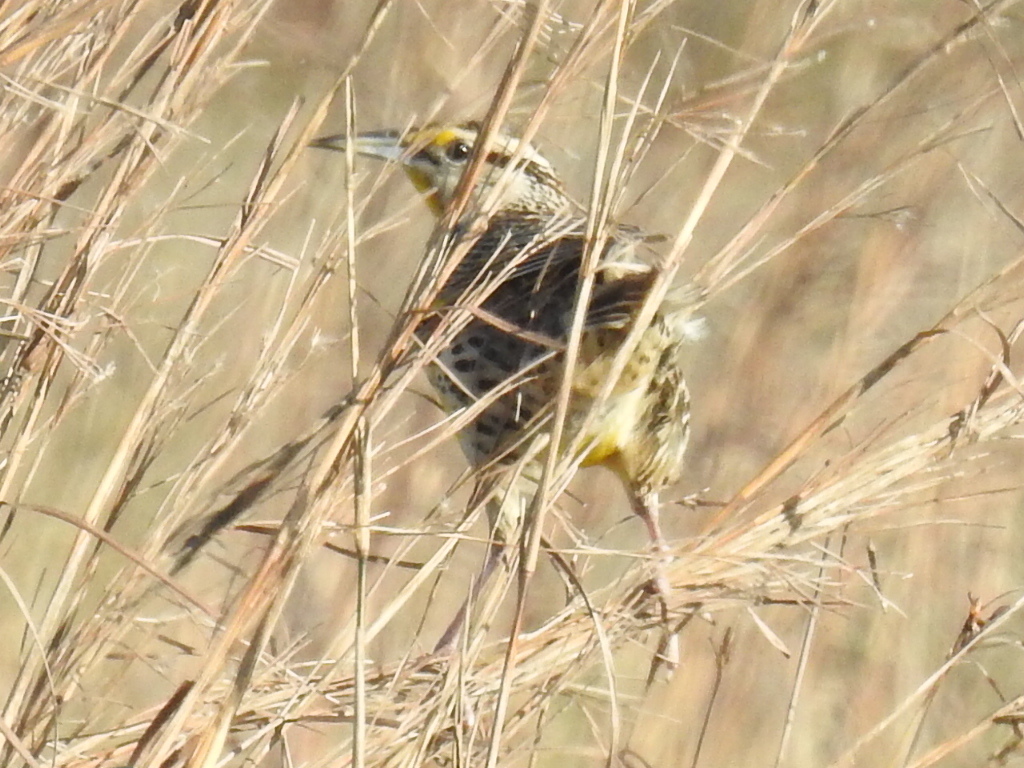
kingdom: Animalia
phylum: Chordata
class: Aves
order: Passeriformes
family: Icteridae
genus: Sturnella
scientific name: Sturnella
